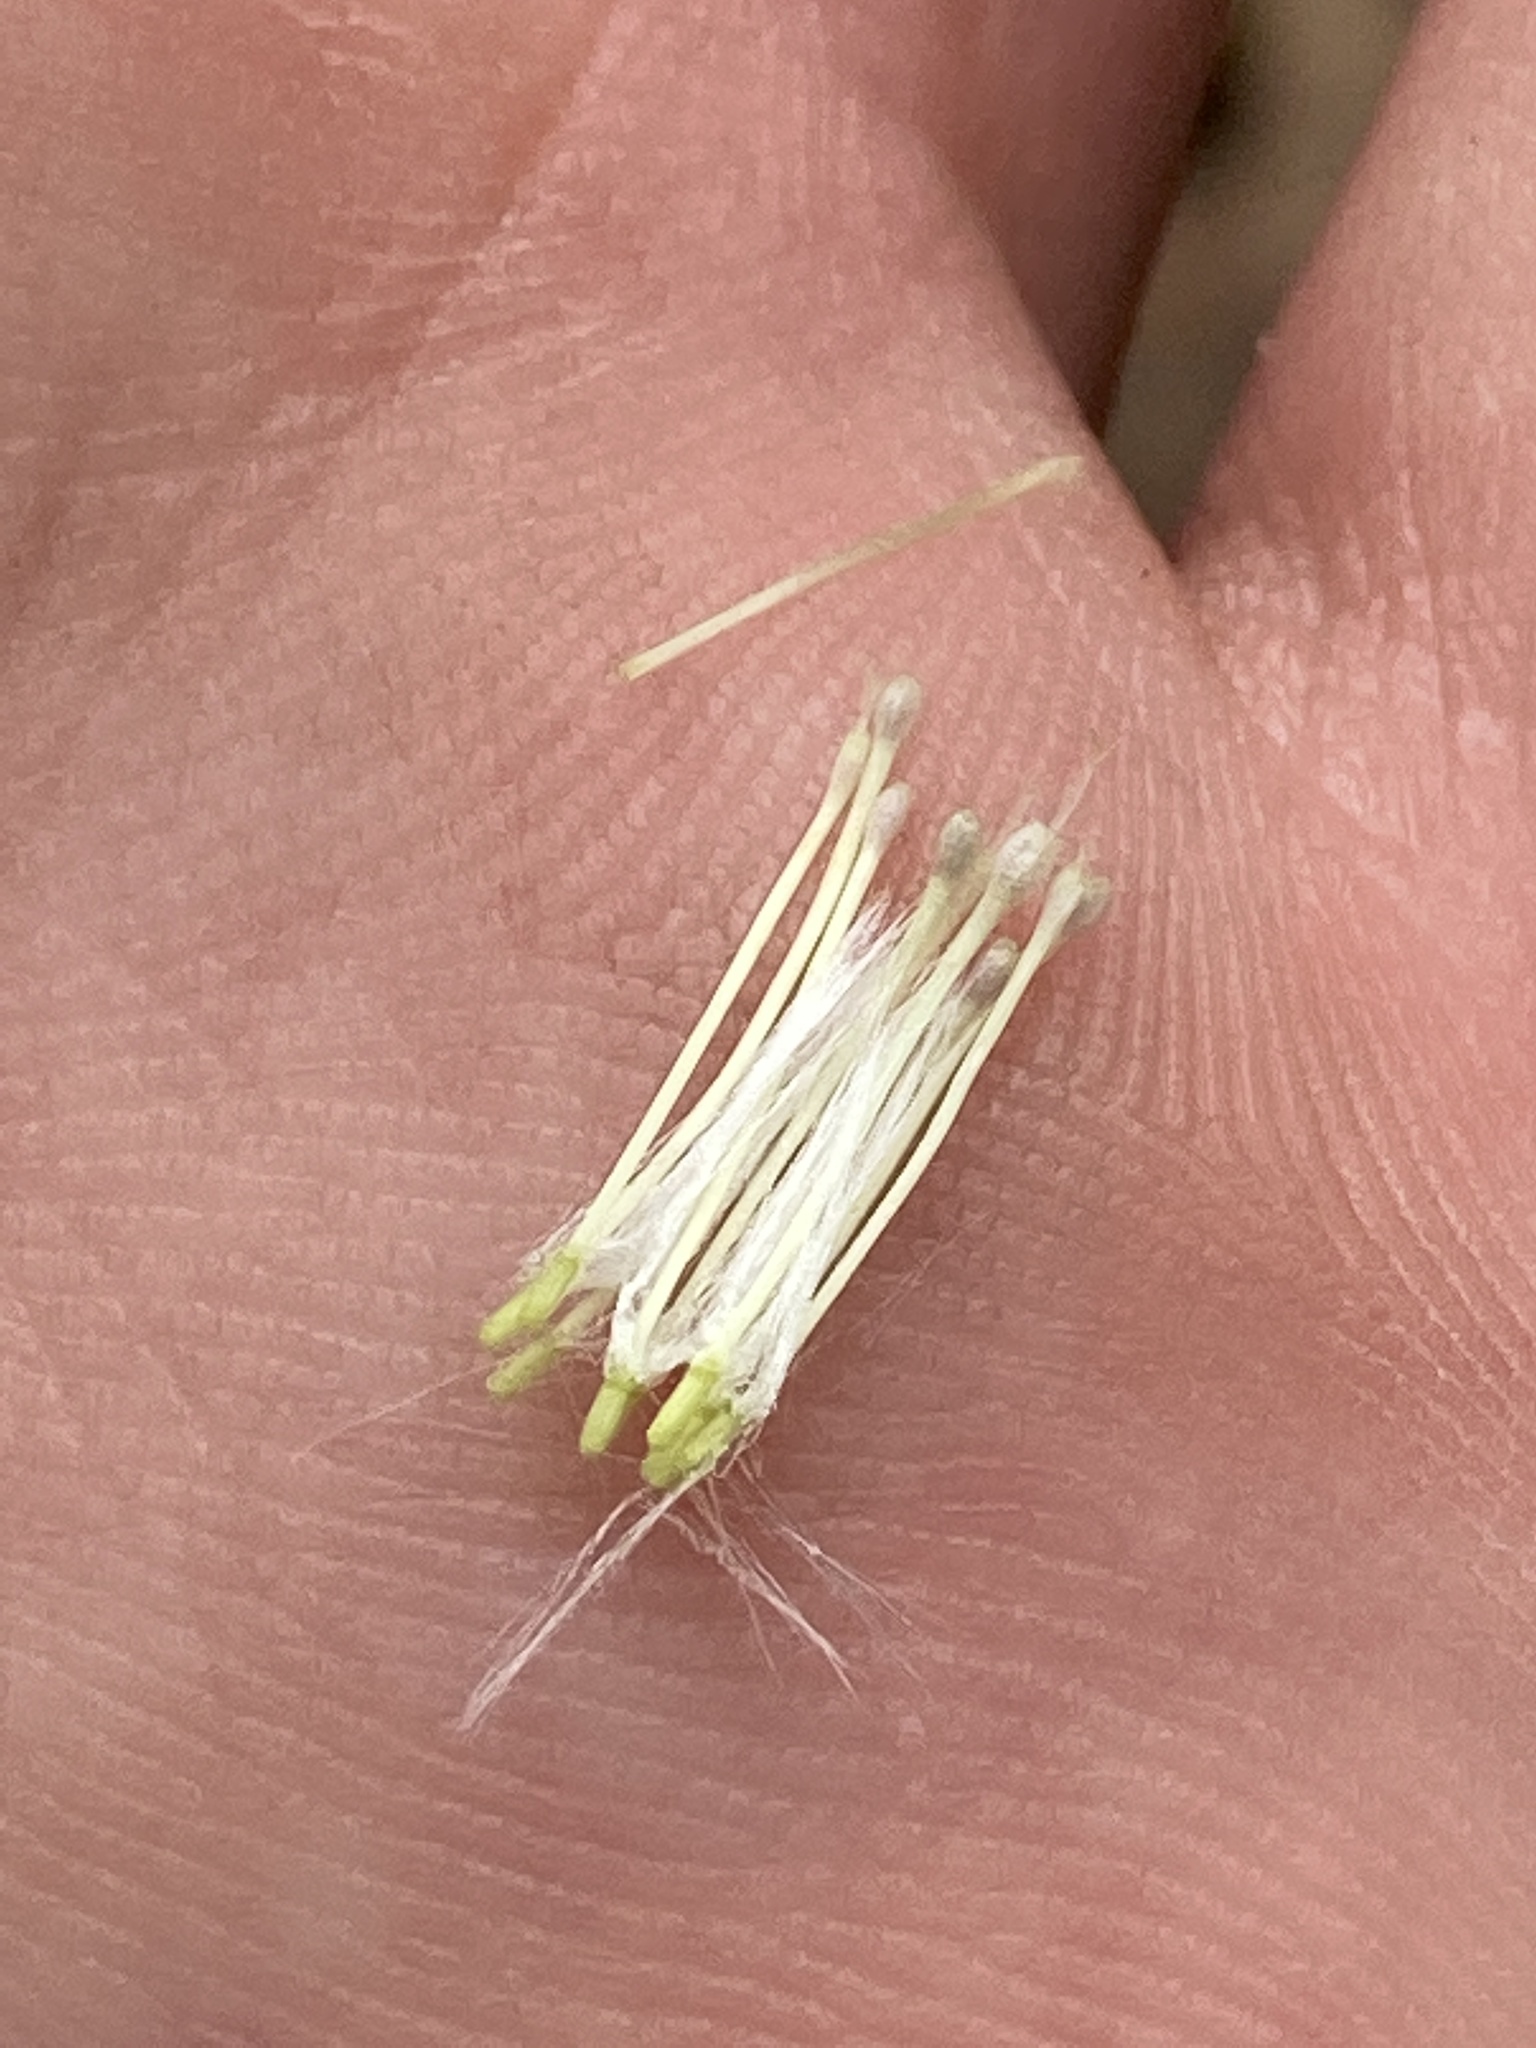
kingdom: Plantae
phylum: Tracheophyta
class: Magnoliopsida
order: Asterales
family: Asteraceae
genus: Erechtites
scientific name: Erechtites hieraciifolius
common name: American burnweed
